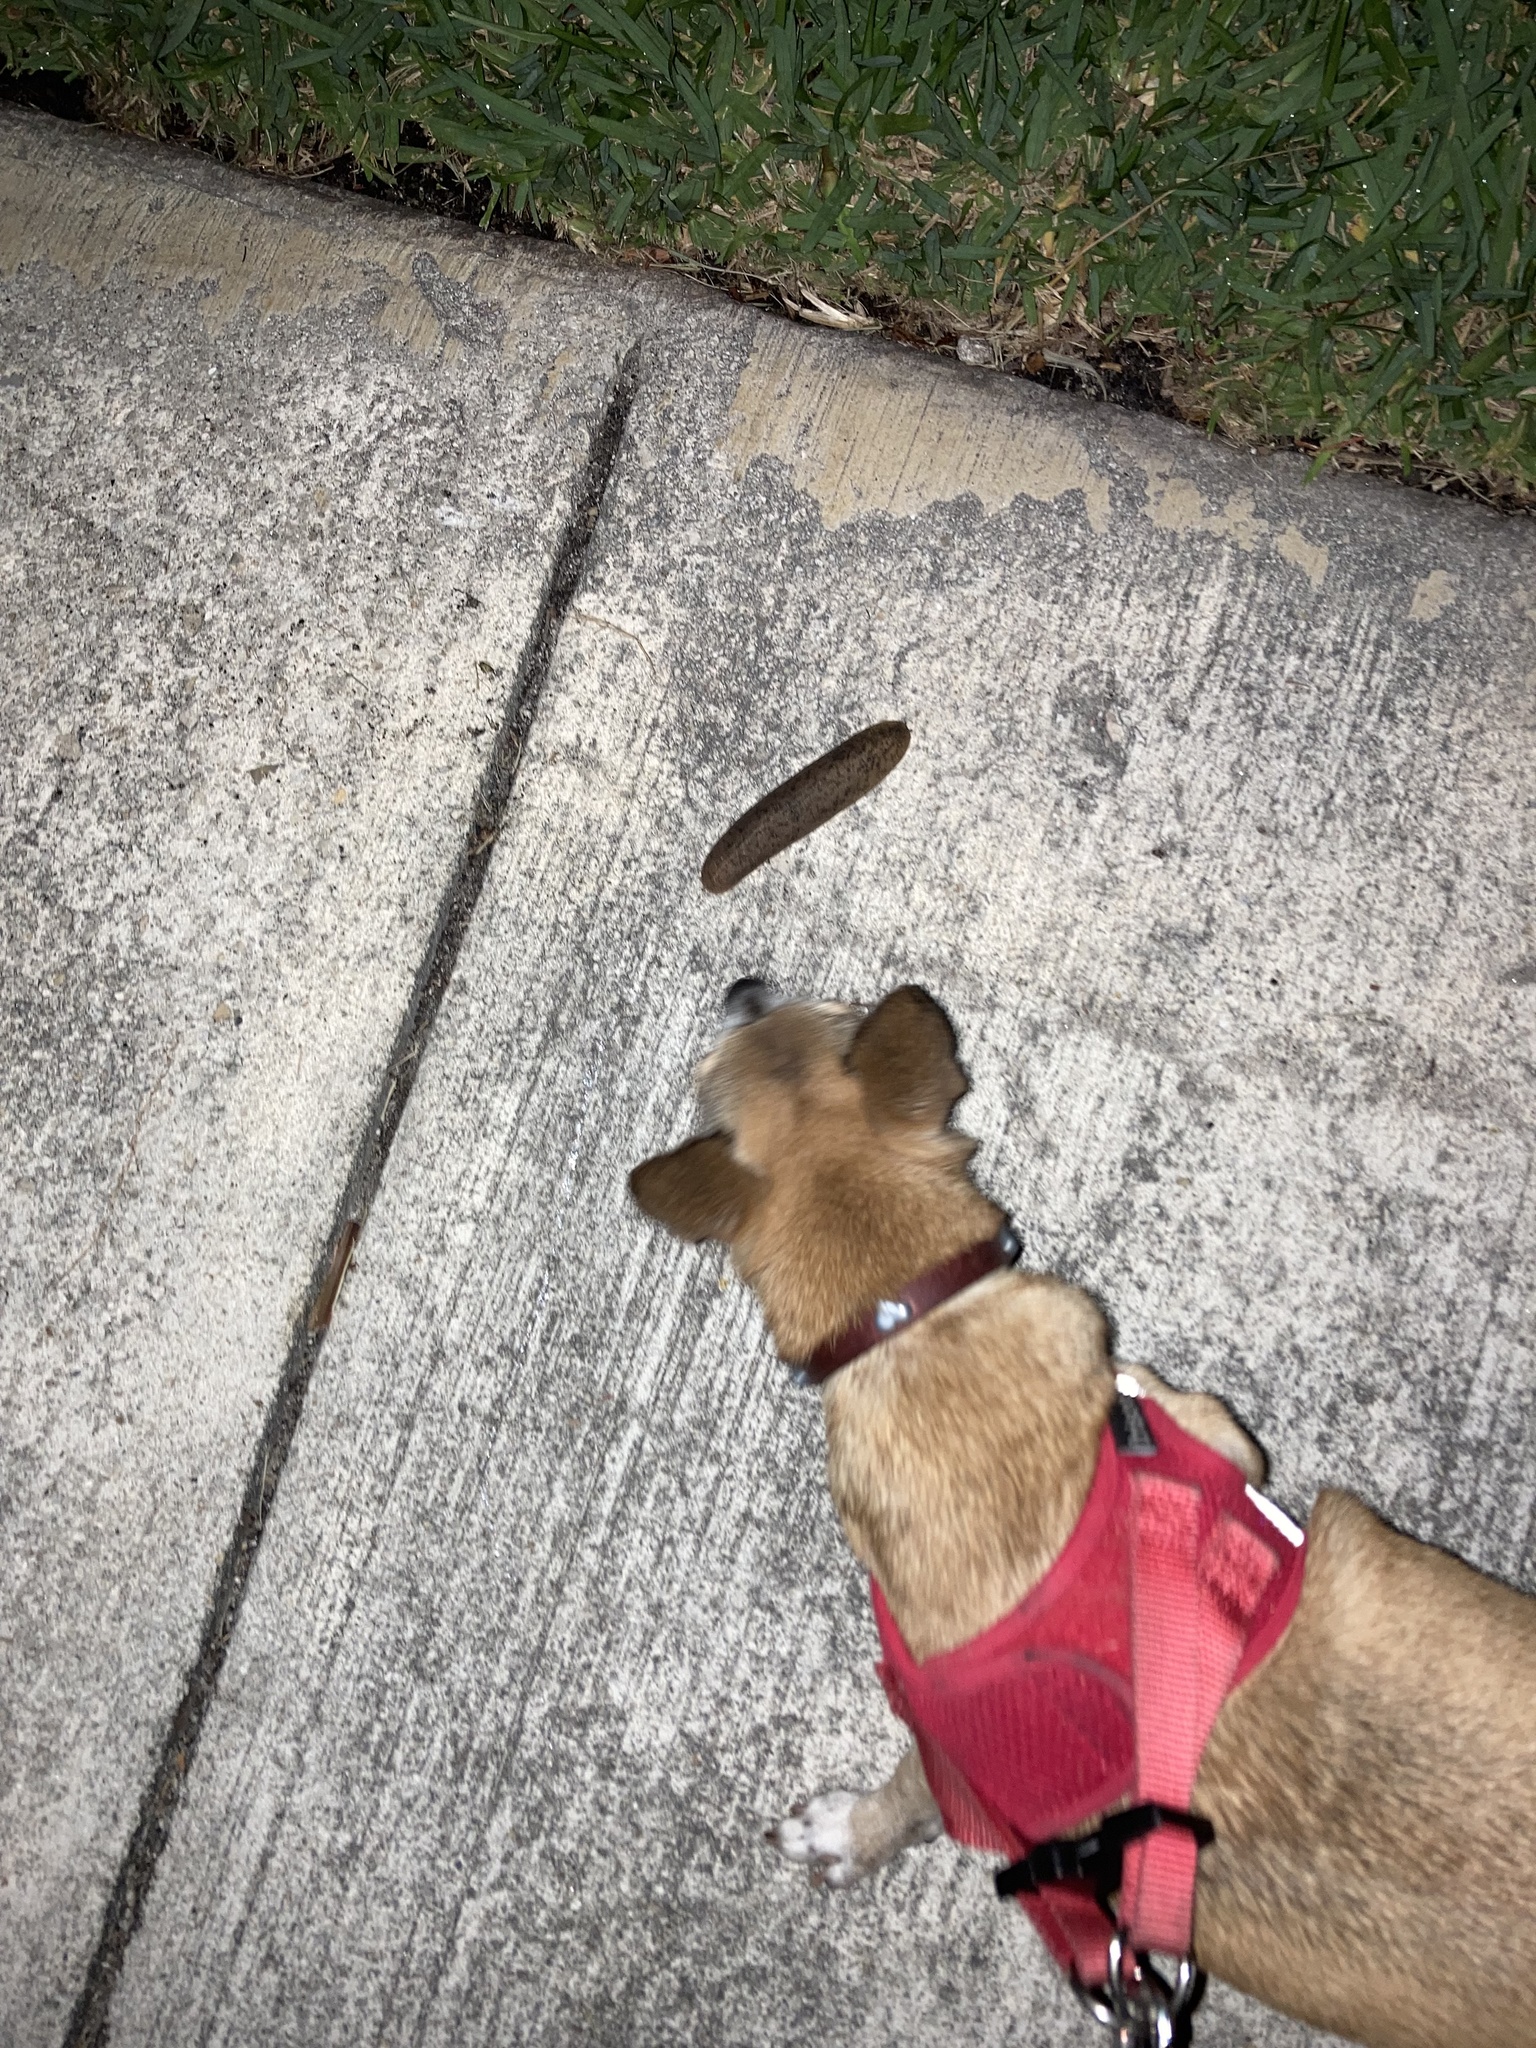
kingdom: Animalia
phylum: Mollusca
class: Gastropoda
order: Systellommatophora
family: Veronicellidae
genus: Leidyula
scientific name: Leidyula floridana
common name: Florida leatherleaf
